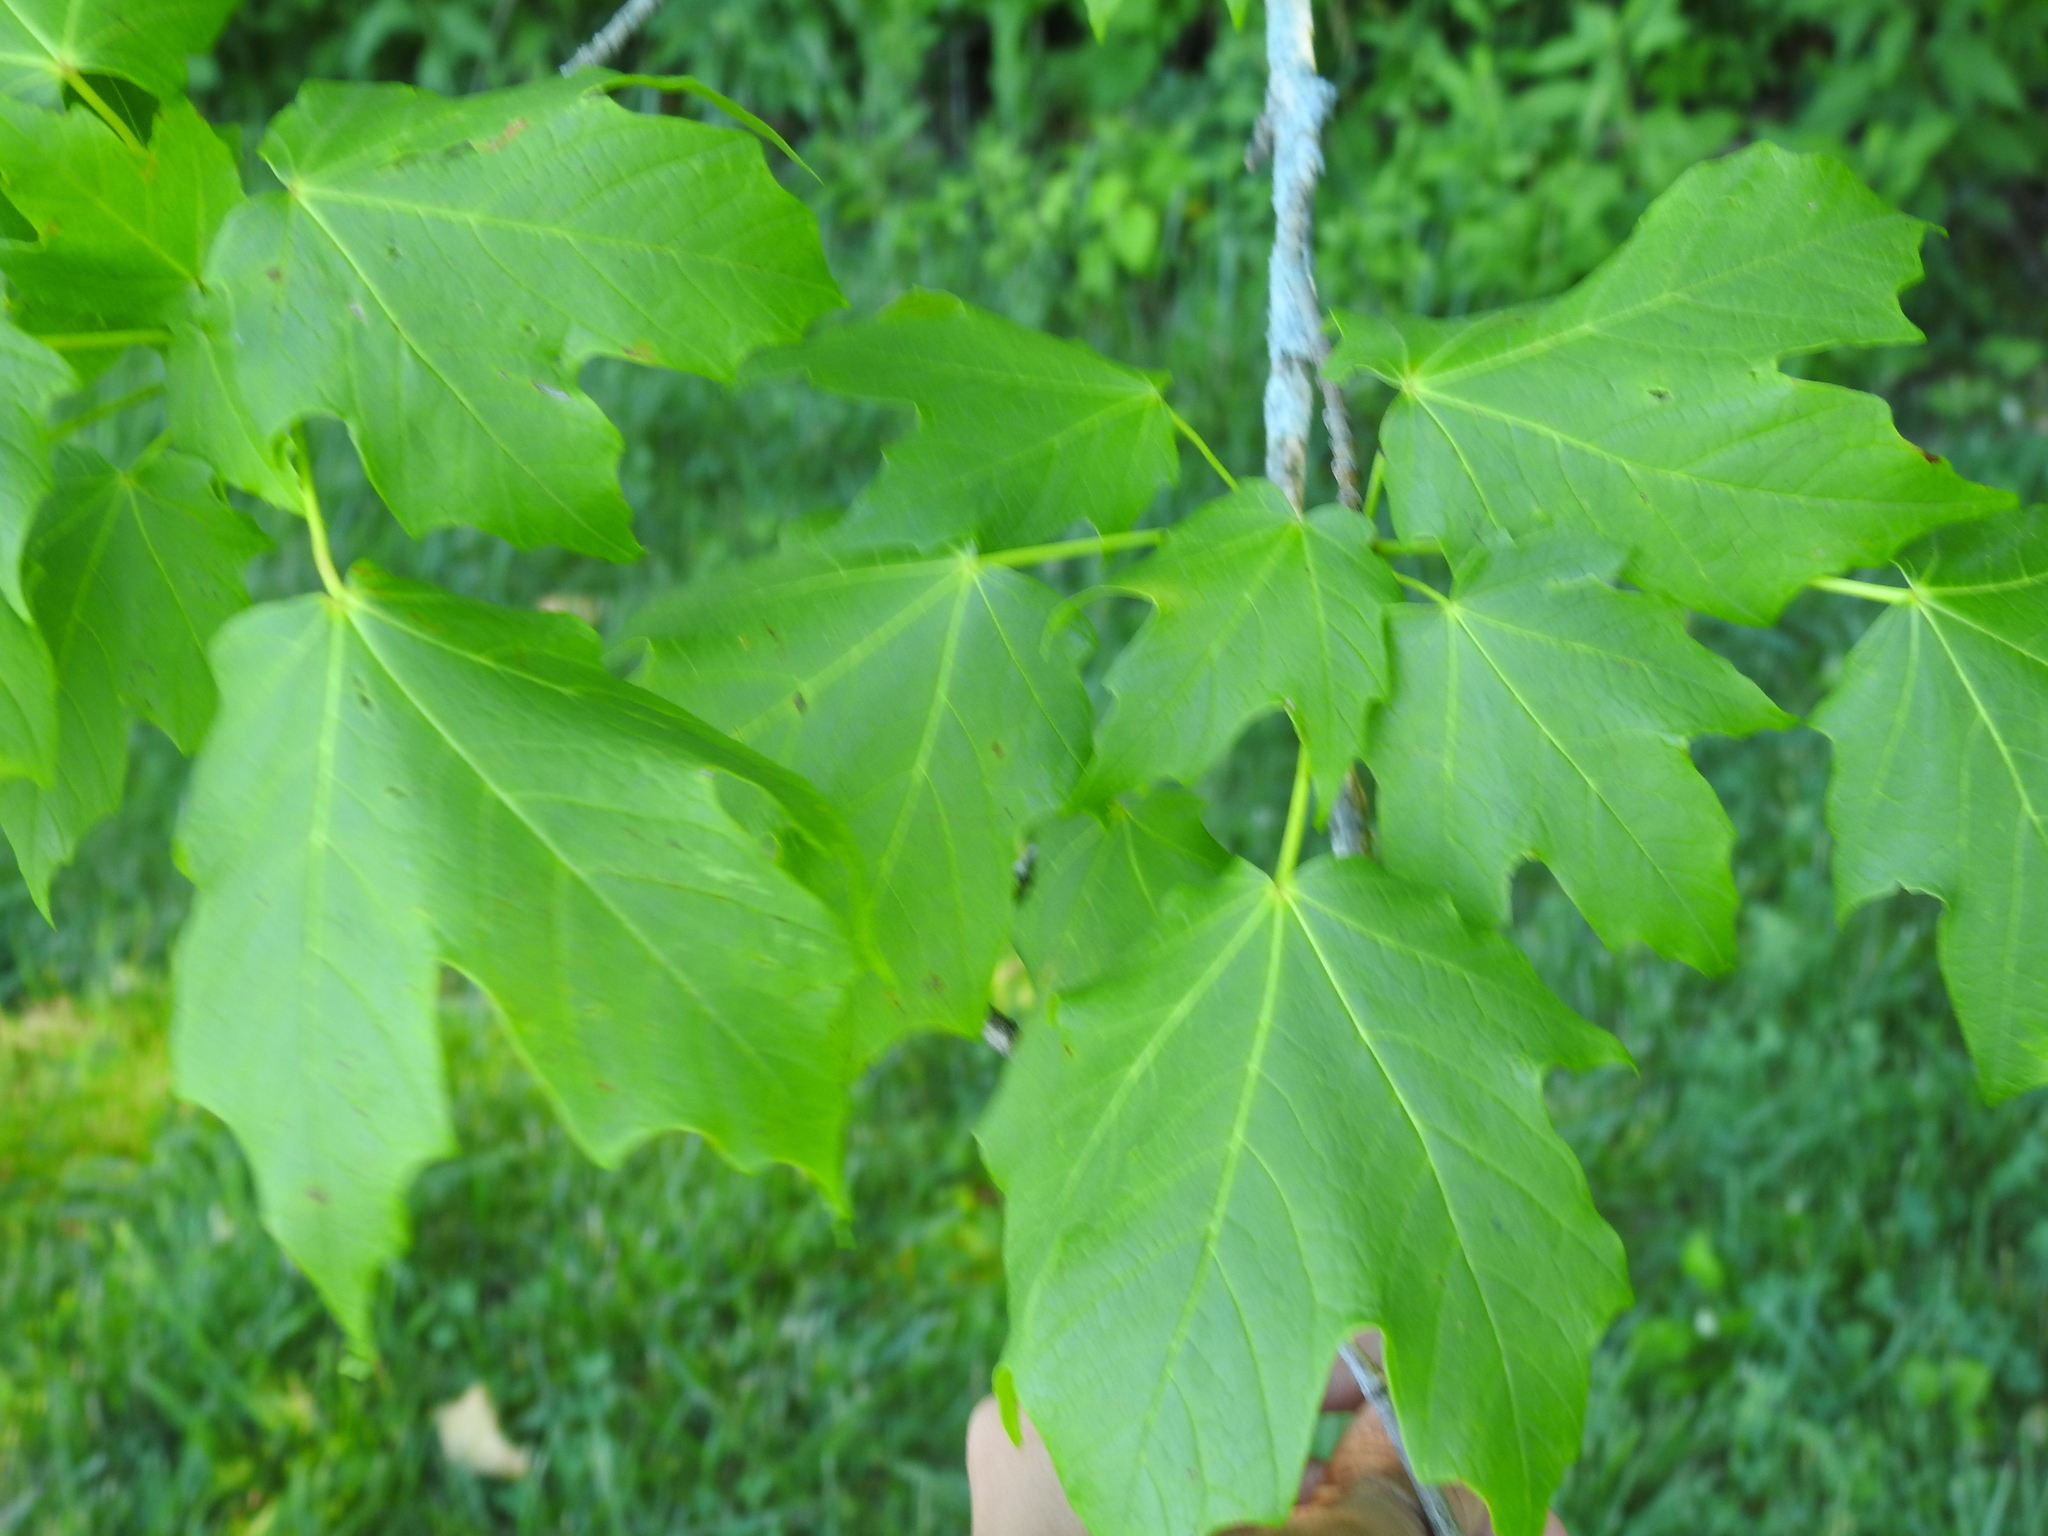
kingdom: Plantae
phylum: Tracheophyta
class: Magnoliopsida
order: Sapindales
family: Sapindaceae
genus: Acer
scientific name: Acer nigrum
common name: Black maple
